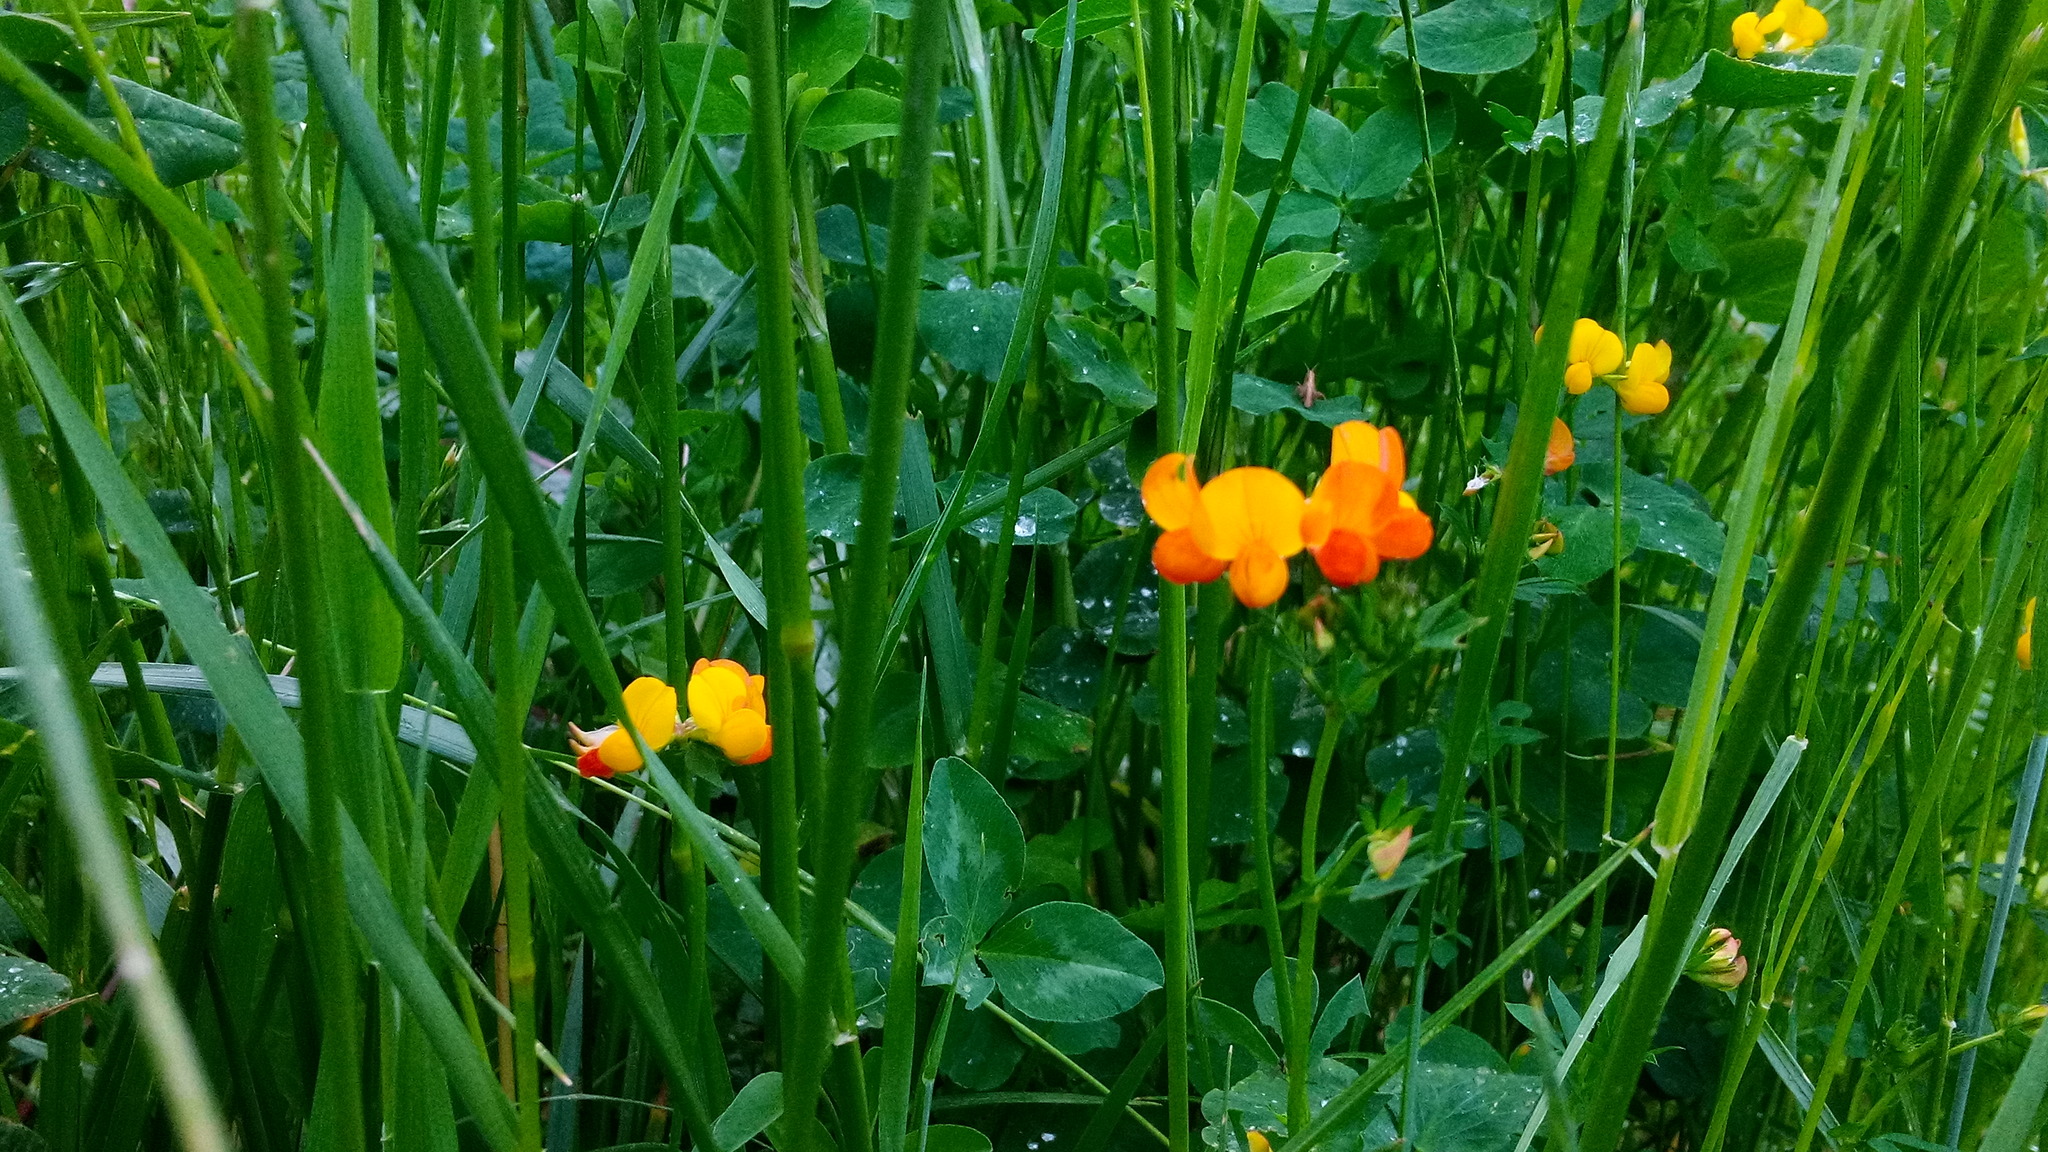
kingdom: Plantae
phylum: Tracheophyta
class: Magnoliopsida
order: Fabales
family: Fabaceae
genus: Lotus
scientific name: Lotus corniculatus
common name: Common bird's-foot-trefoil
